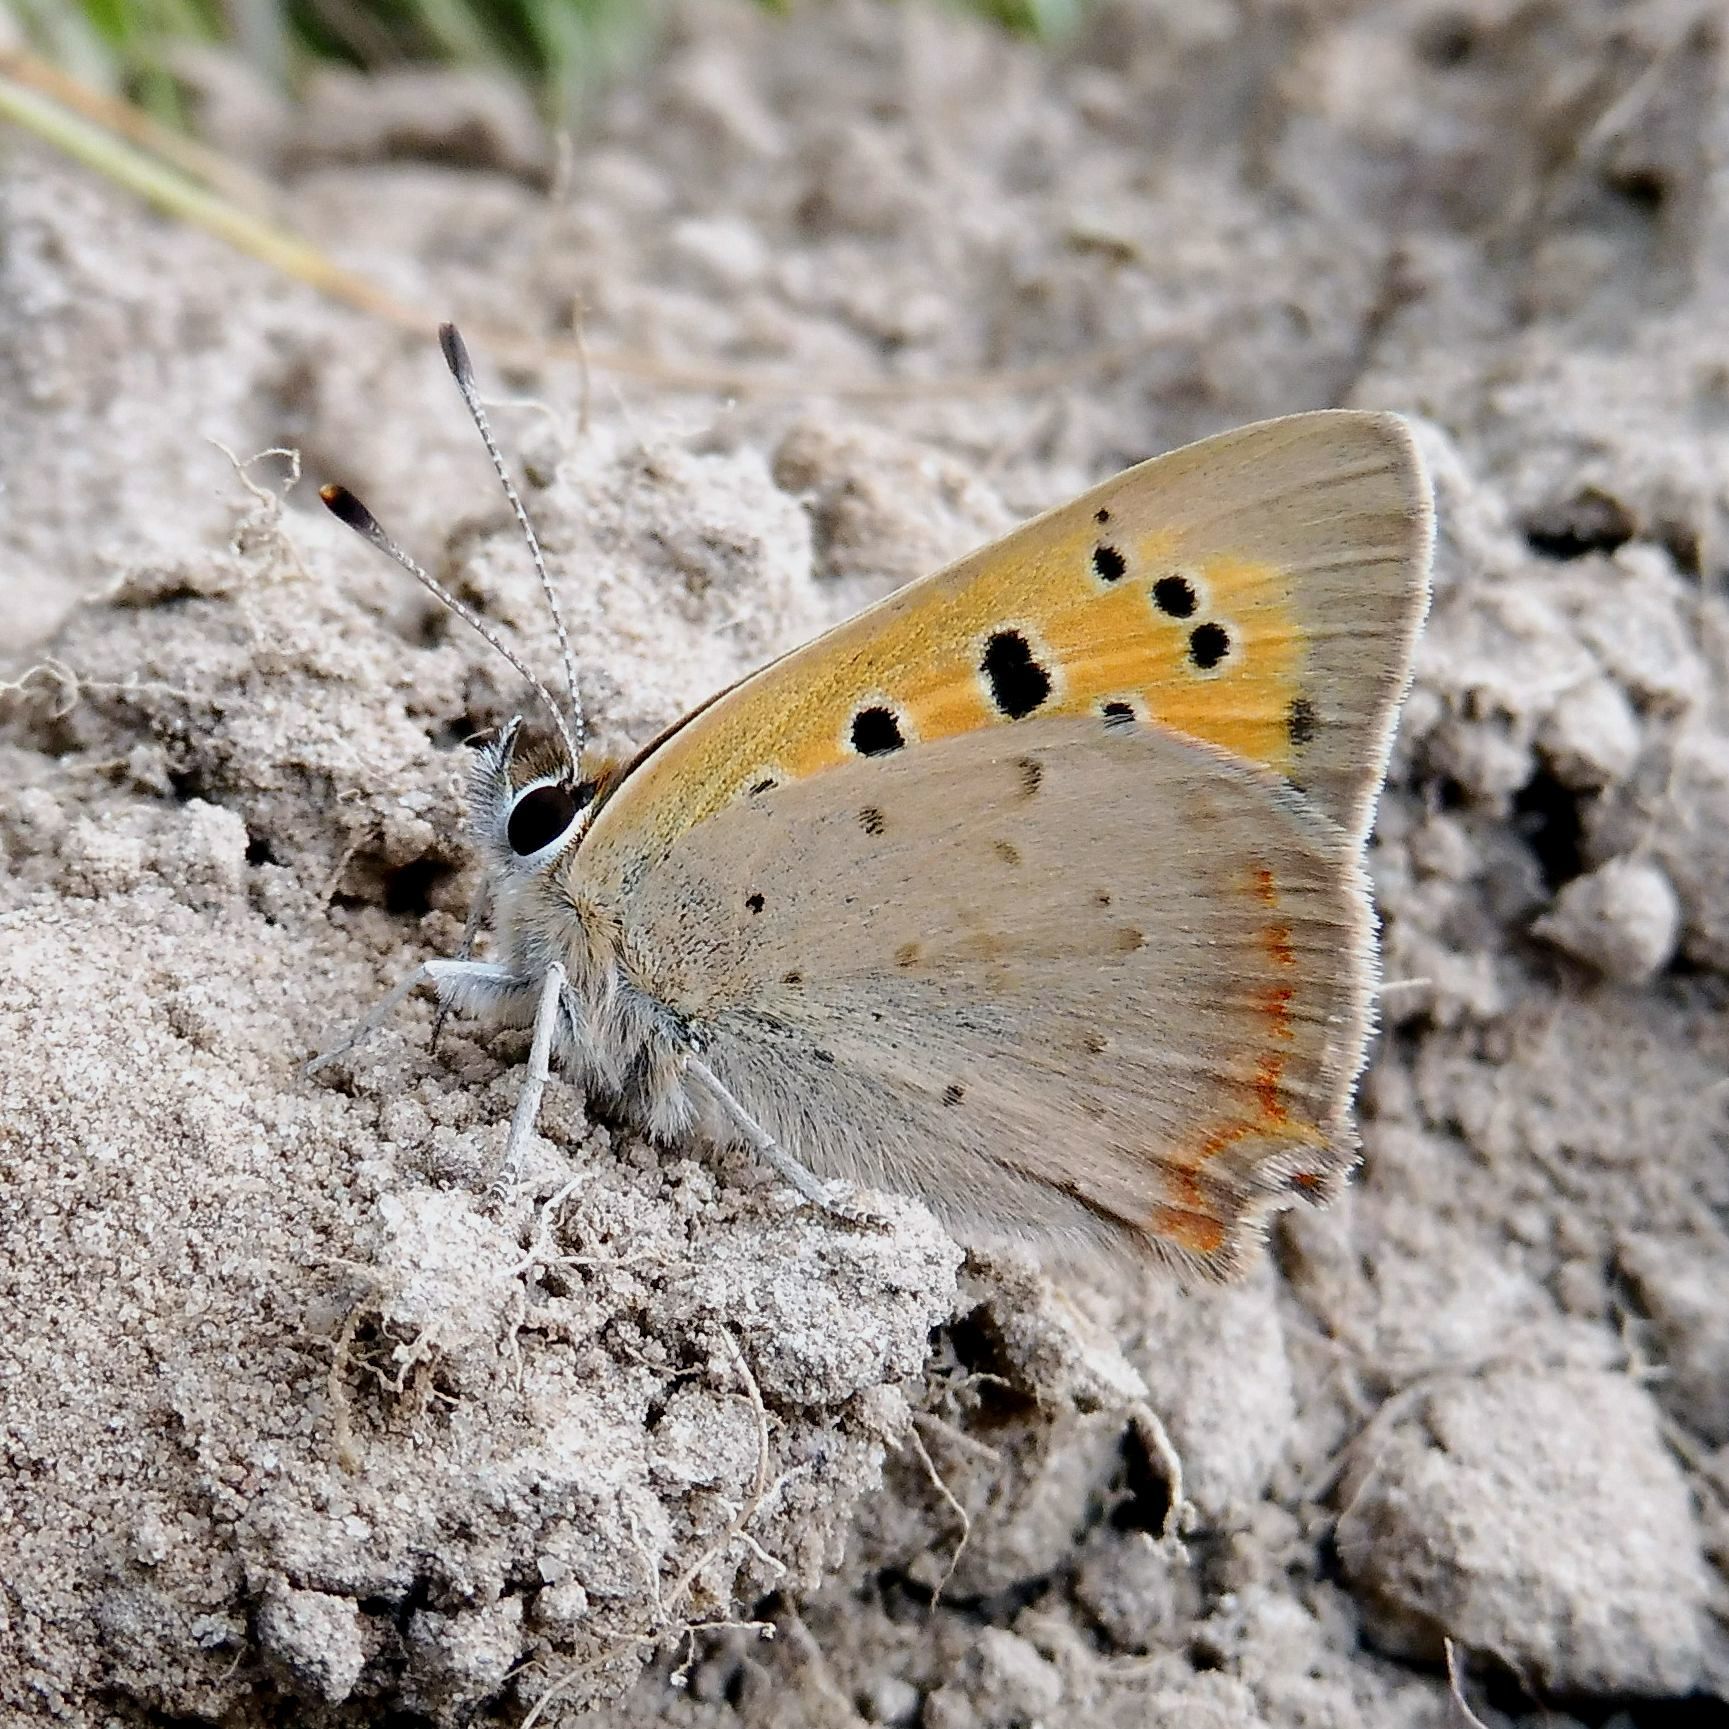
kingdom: Animalia
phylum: Arthropoda
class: Insecta
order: Lepidoptera
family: Lycaenidae
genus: Lycaena
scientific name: Lycaena phlaeas
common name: Small copper
